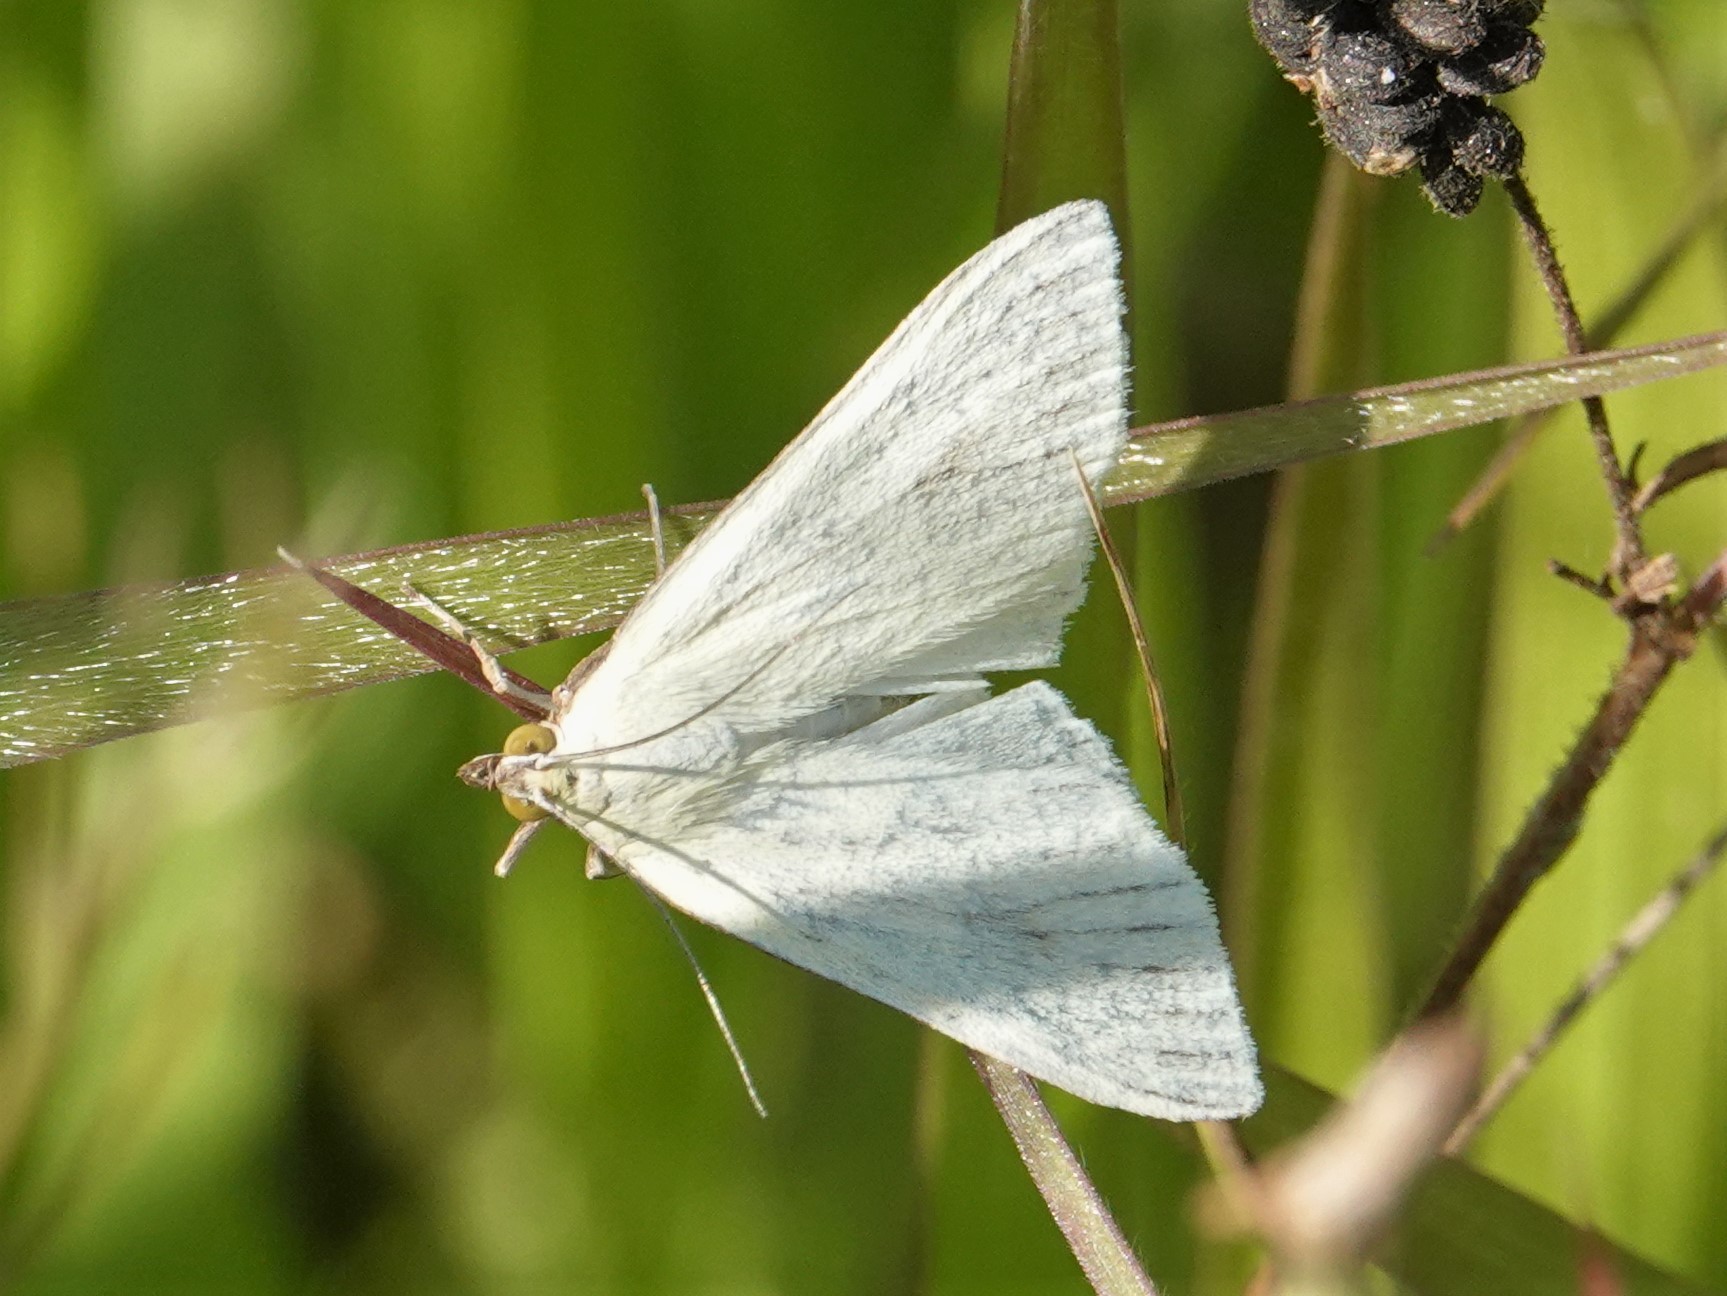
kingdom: Animalia
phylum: Arthropoda
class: Insecta
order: Lepidoptera
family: Crambidae
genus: Sitochroa
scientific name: Sitochroa palealis
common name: Greenish-yellow sitochroa moth
